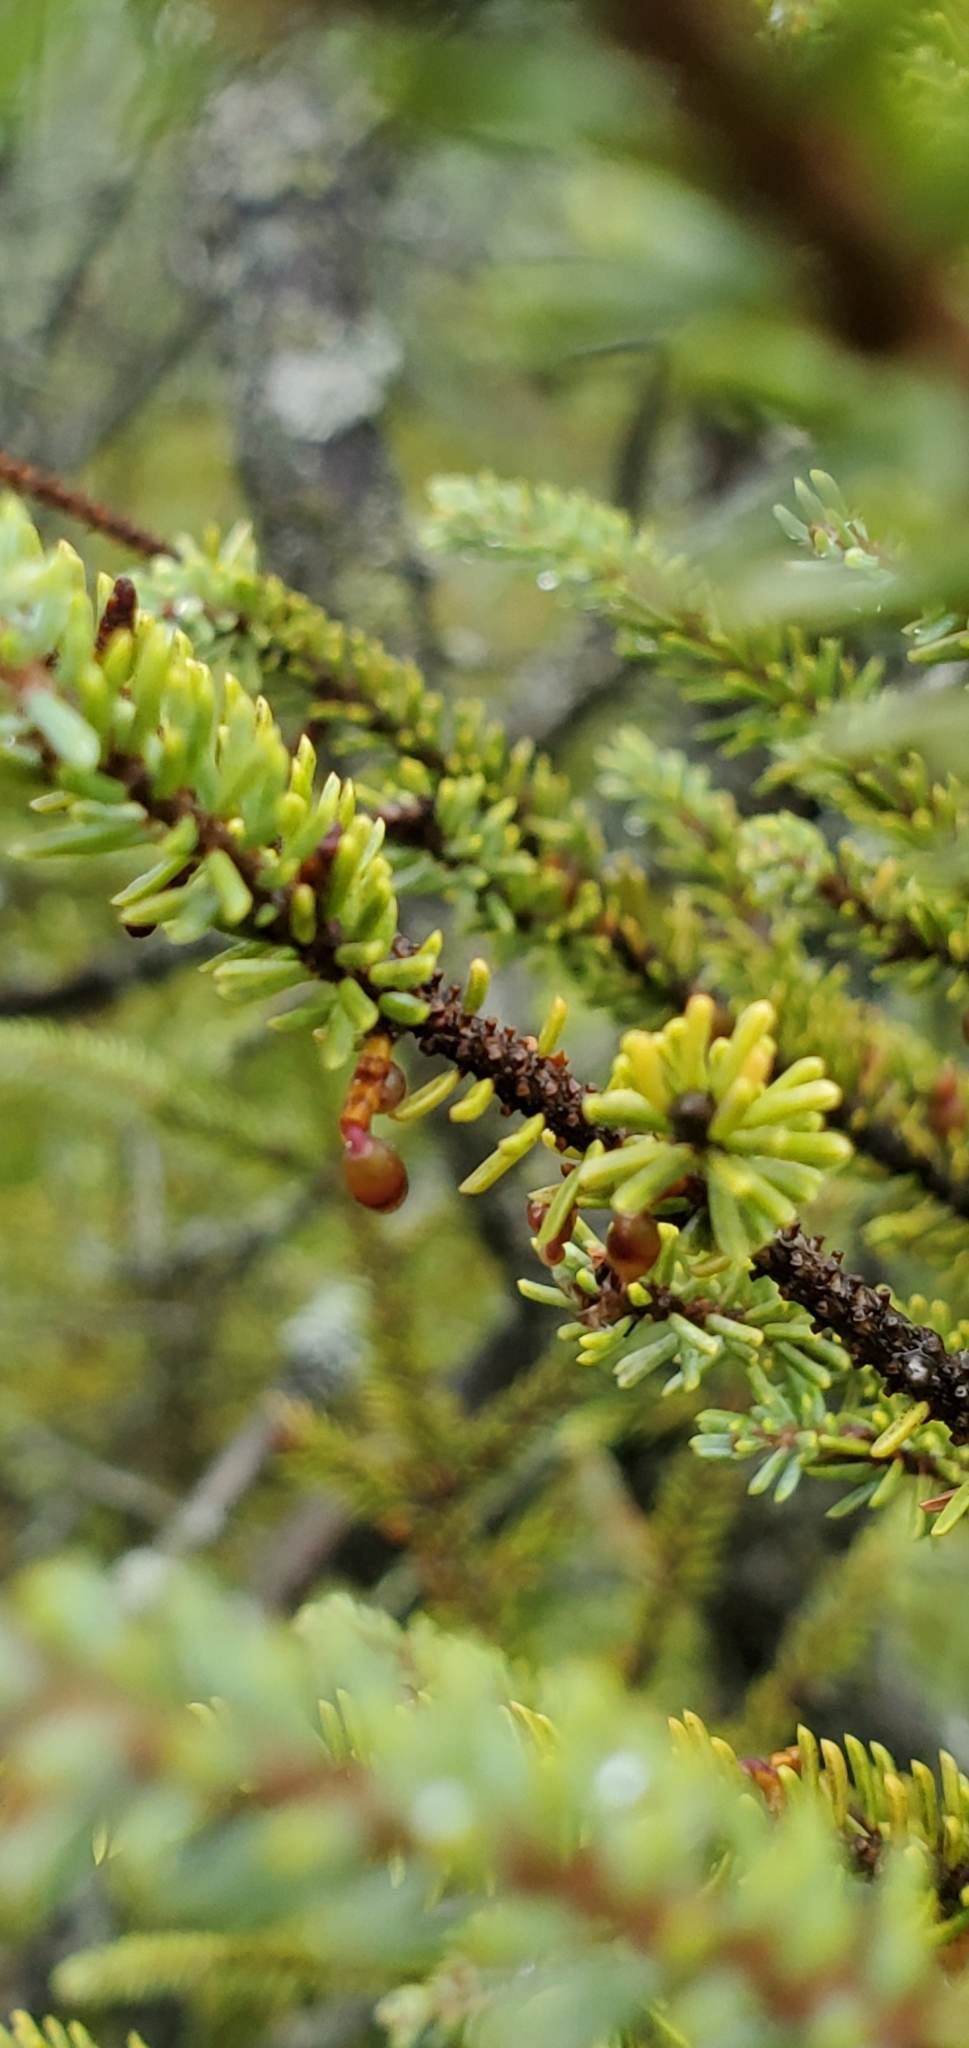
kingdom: Plantae
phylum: Tracheophyta
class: Magnoliopsida
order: Santalales
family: Viscaceae
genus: Arceuthobium
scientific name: Arceuthobium pusillum
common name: Dwarf-mistletoe
